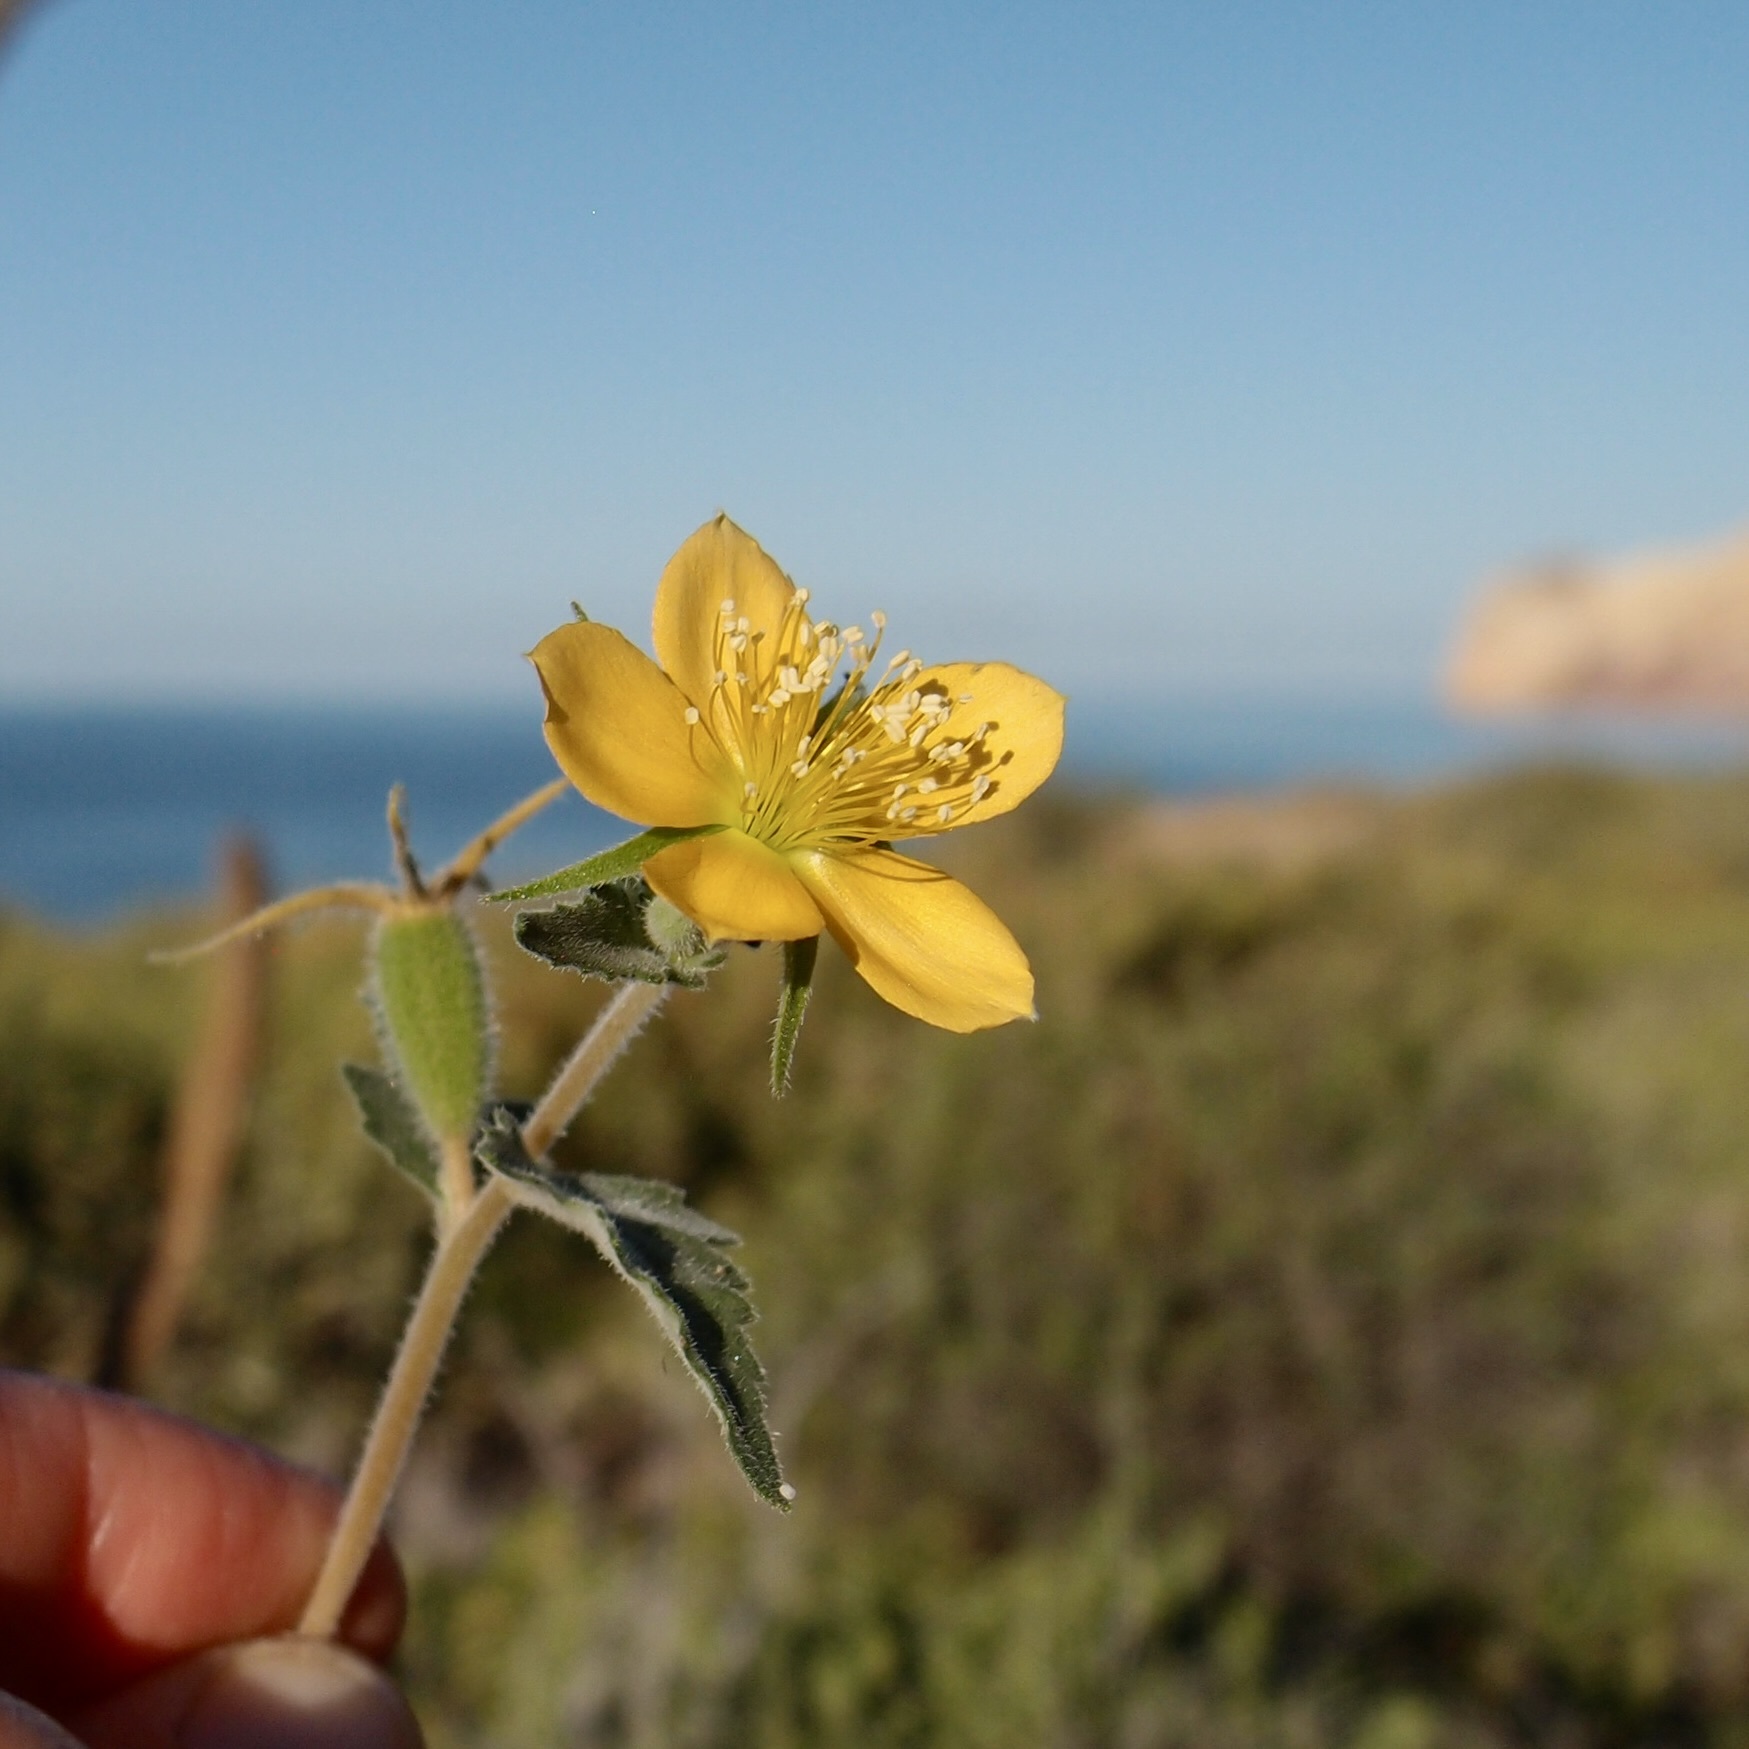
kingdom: Plantae
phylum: Tracheophyta
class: Magnoliopsida
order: Cornales
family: Loasaceae
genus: Mentzelia
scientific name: Mentzelia adhaerens
